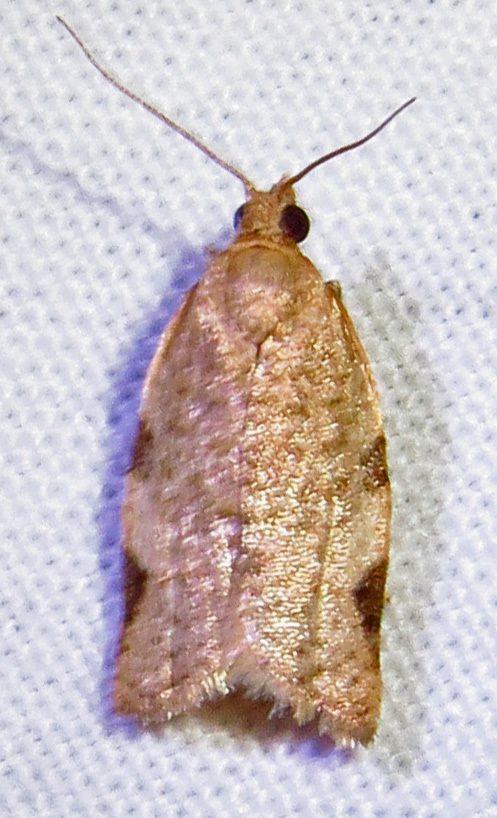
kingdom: Animalia
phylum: Arthropoda
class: Insecta
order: Lepidoptera
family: Tortricidae
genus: Clepsis
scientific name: Clepsis virescana
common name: Greenish apple moth
